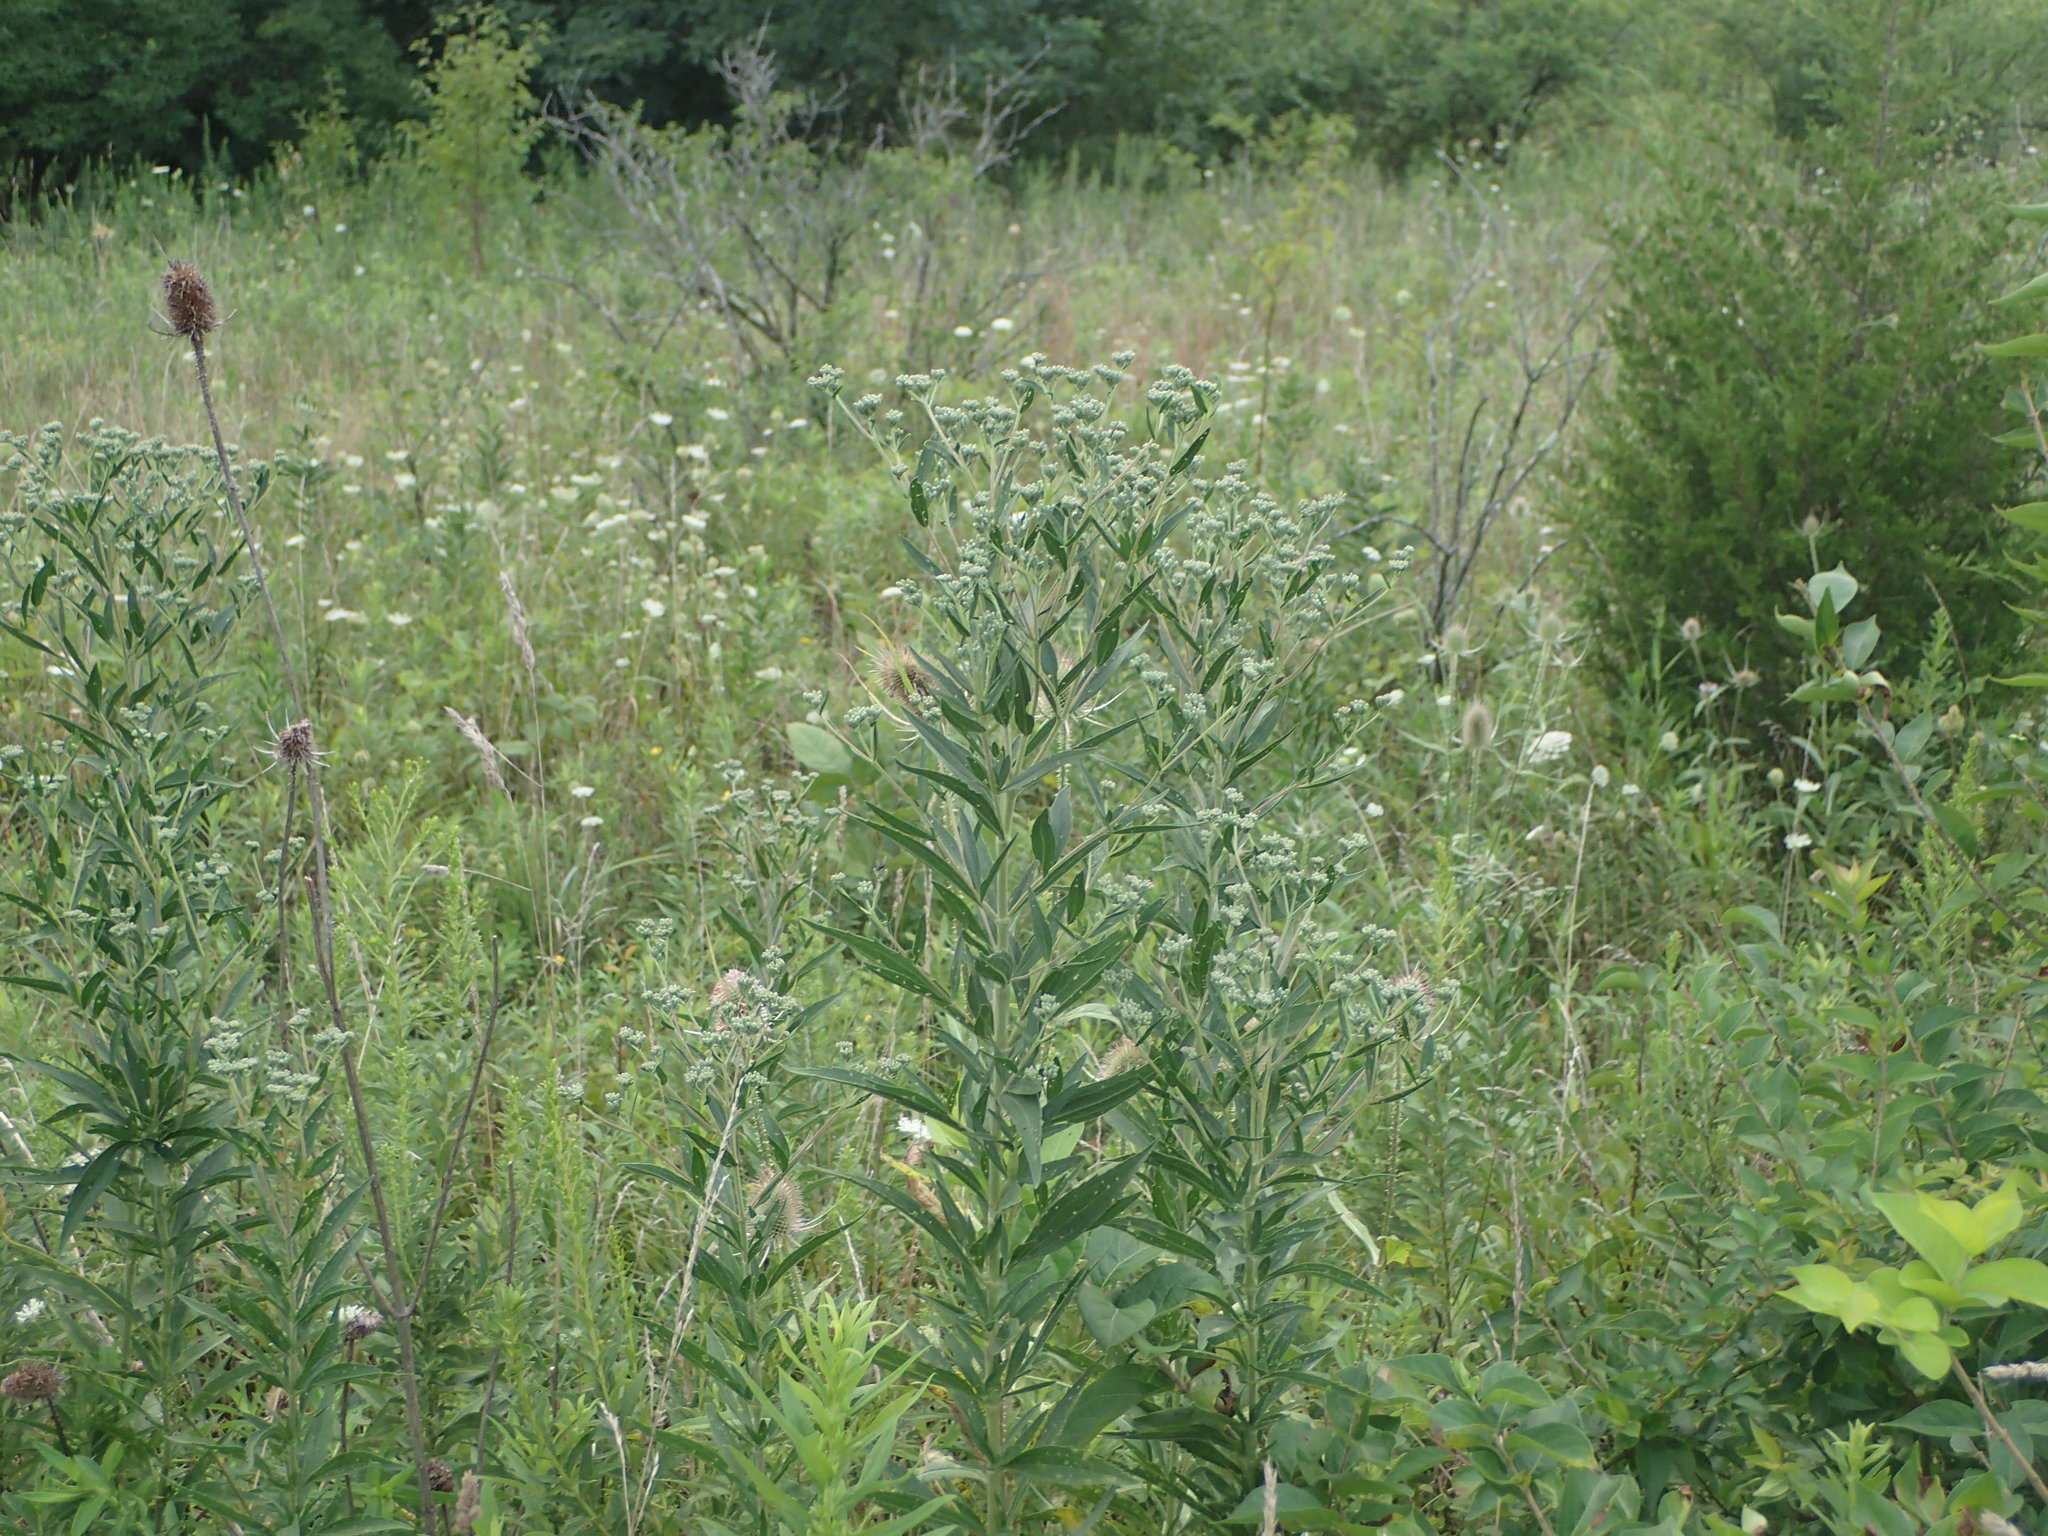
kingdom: Plantae
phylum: Tracheophyta
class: Magnoliopsida
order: Asterales
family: Asteraceae
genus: Eupatorium
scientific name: Eupatorium altissimum
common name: Tall thoroughwort
